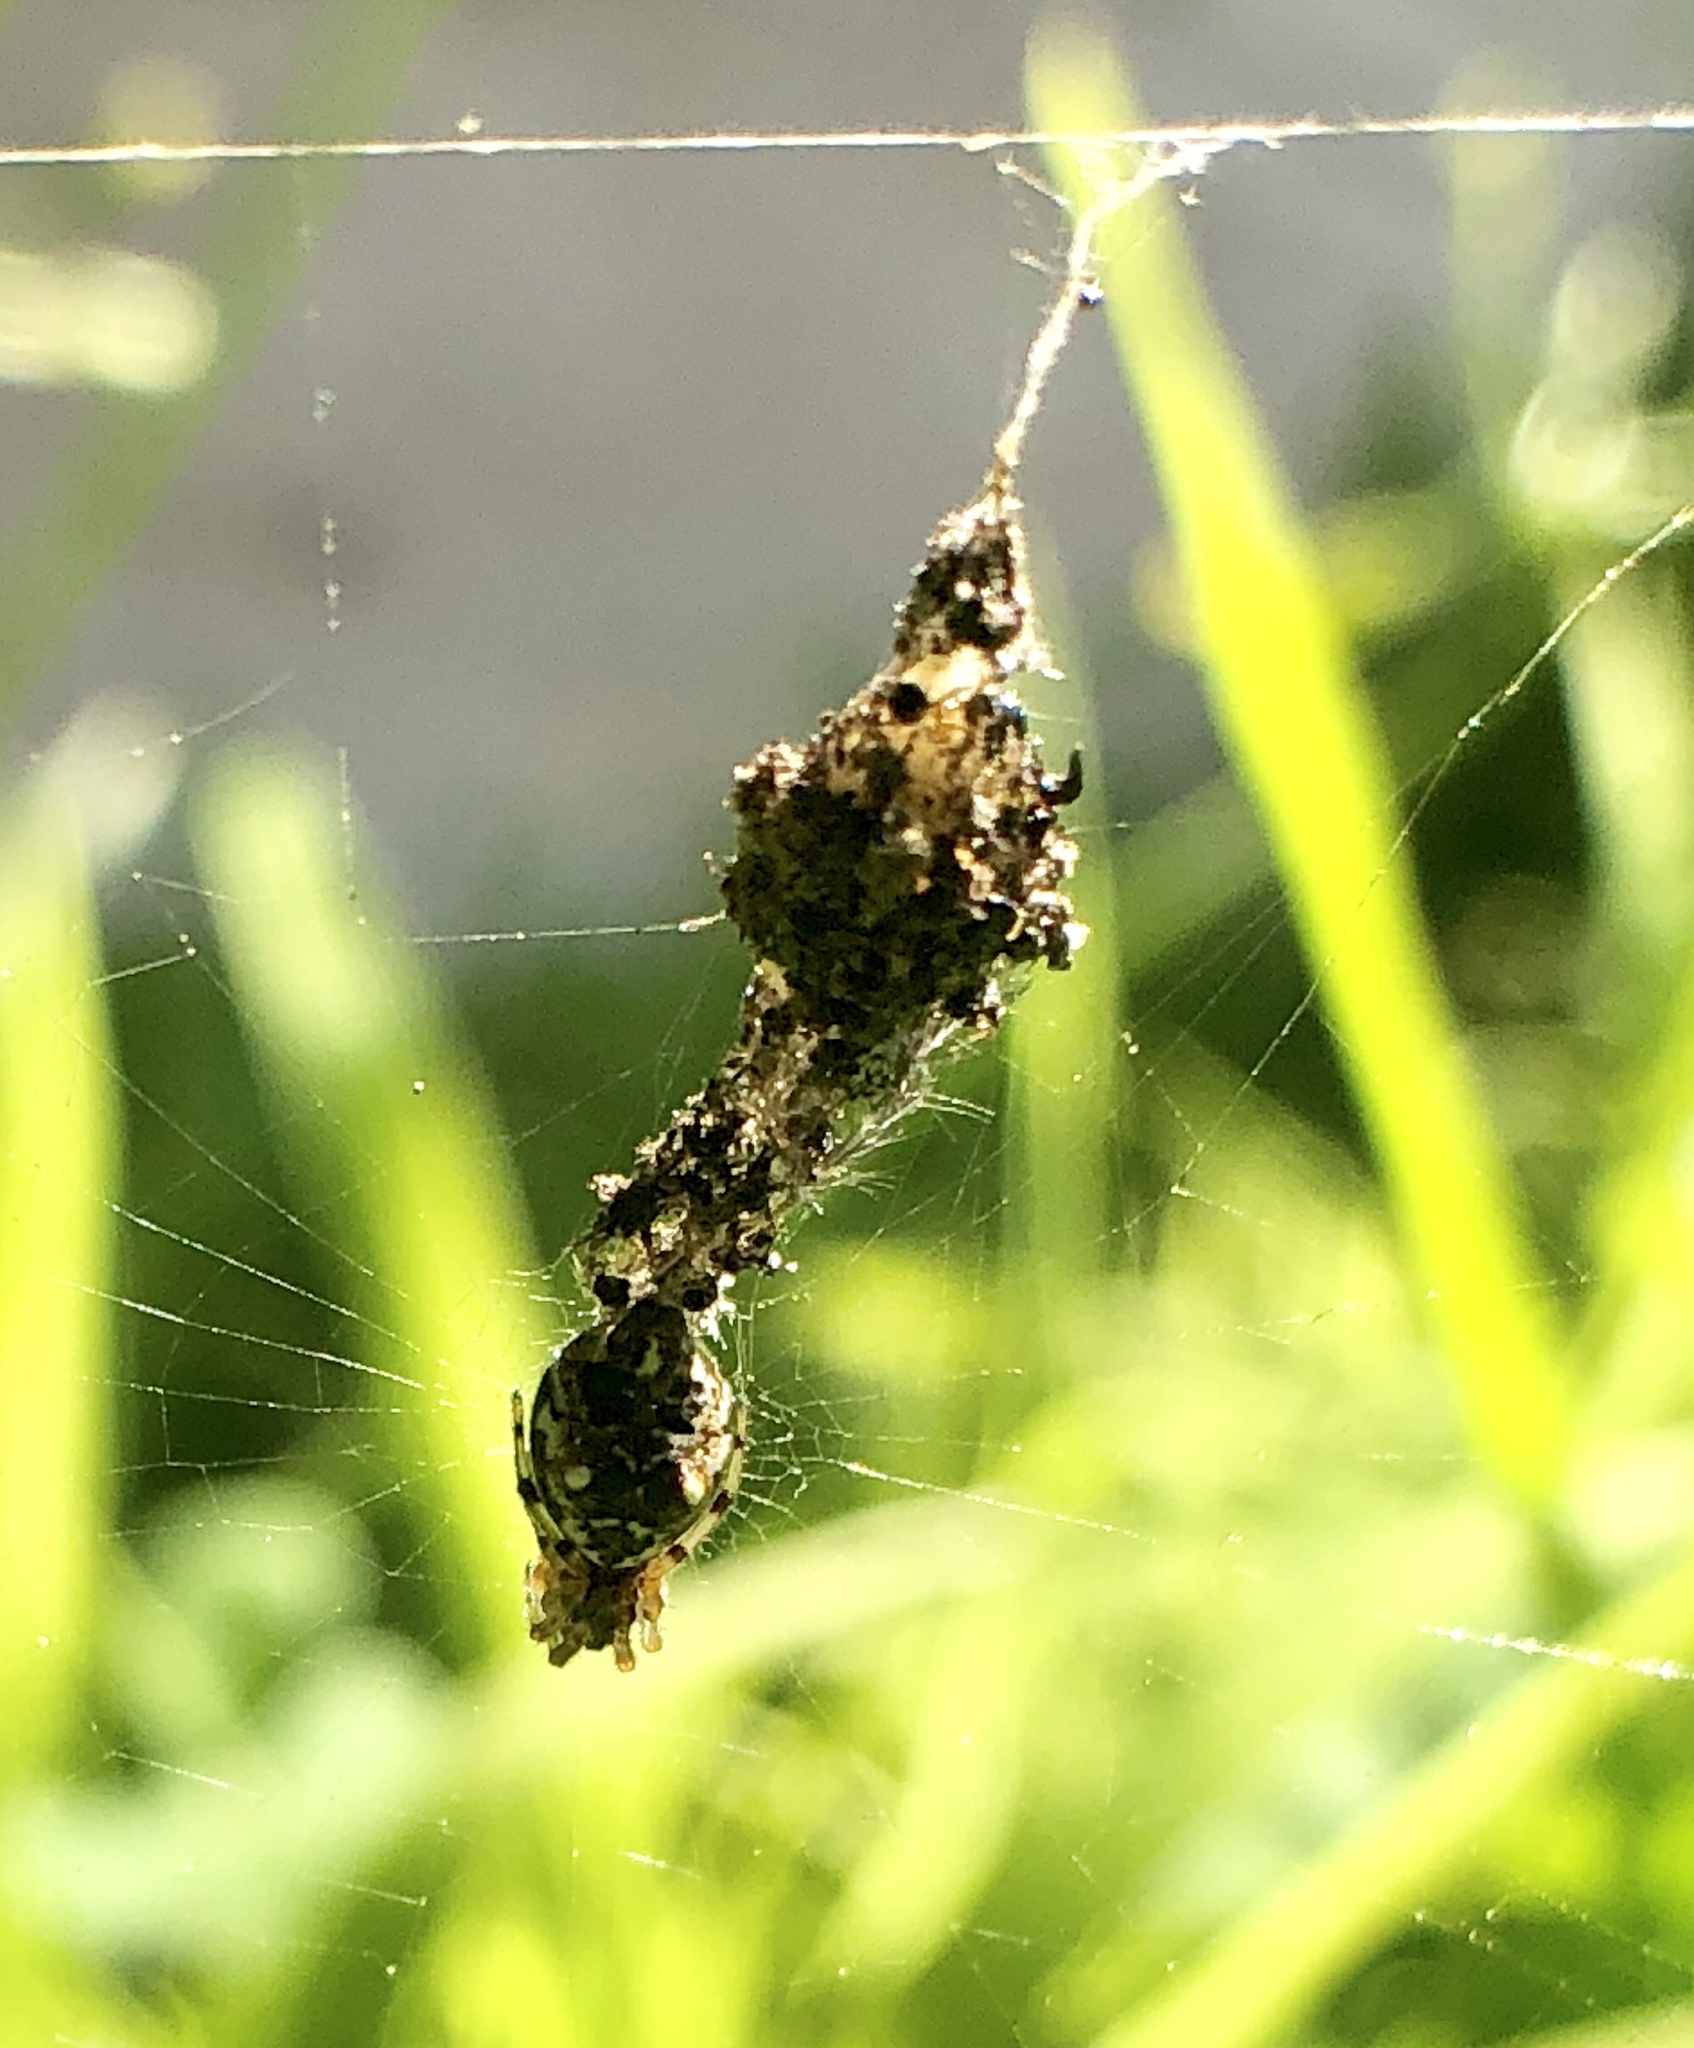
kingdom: Animalia
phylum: Arthropoda
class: Arachnida
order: Araneae
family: Araneidae
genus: Cyclosa
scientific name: Cyclosa turbinata
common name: Orb weavers
